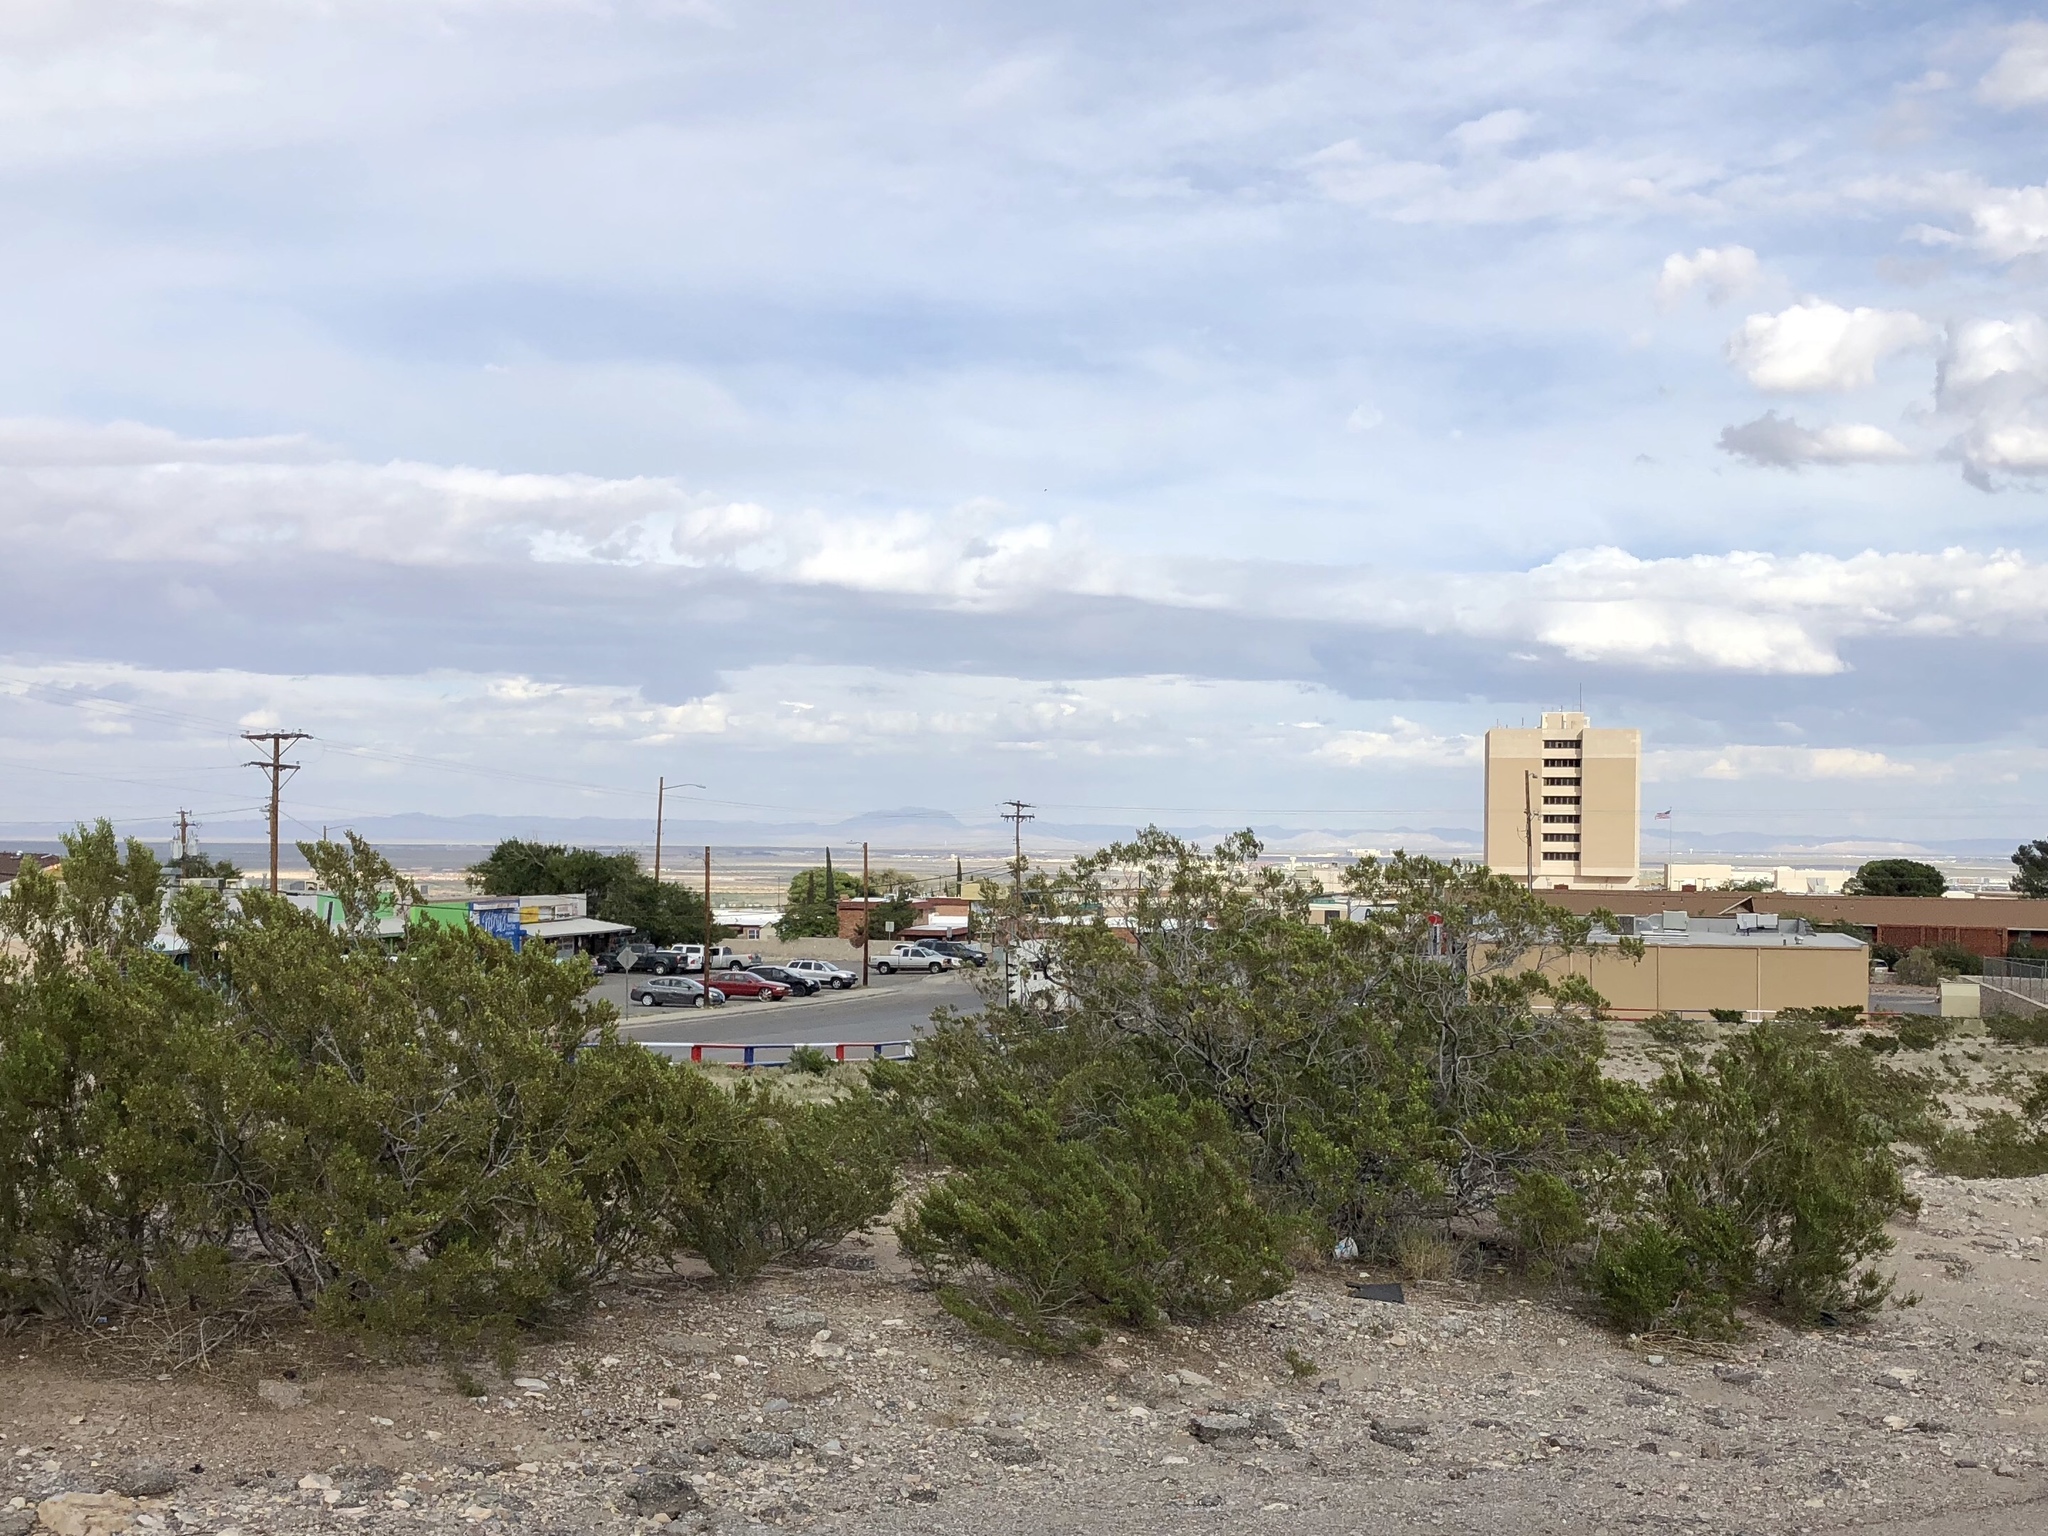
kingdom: Plantae
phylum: Tracheophyta
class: Magnoliopsida
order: Zygophyllales
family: Zygophyllaceae
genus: Larrea
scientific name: Larrea tridentata
